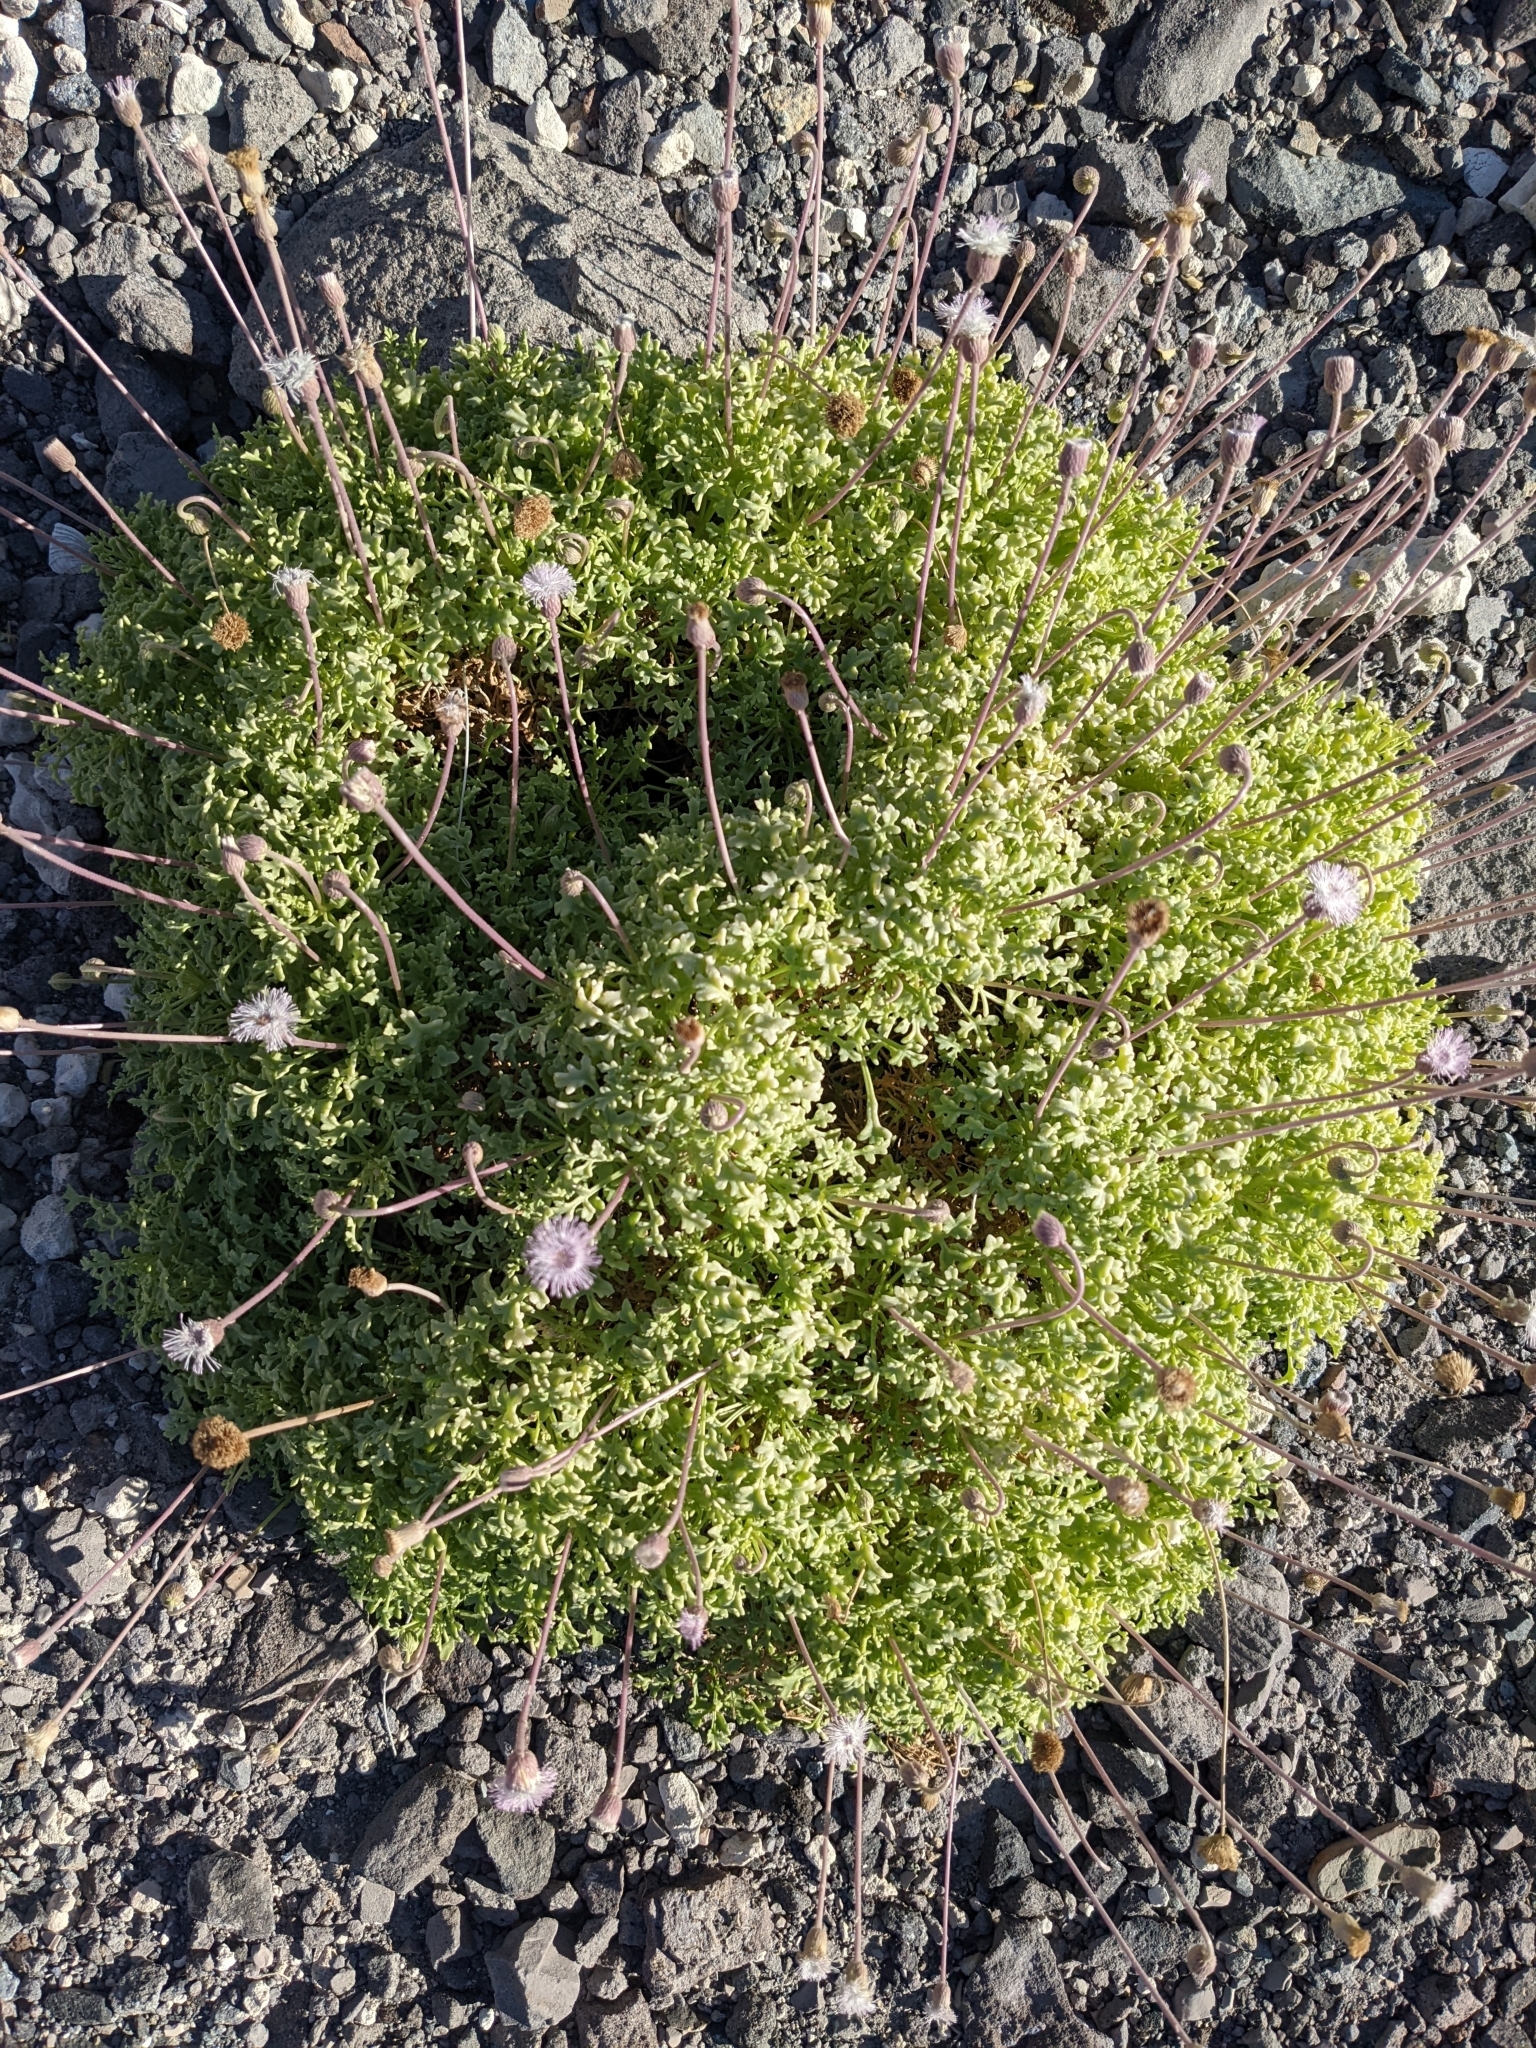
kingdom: Plantae
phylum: Tracheophyta
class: Magnoliopsida
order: Asterales
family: Asteraceae
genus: Hofmeisteria
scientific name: Hofmeisteria fasciculata
